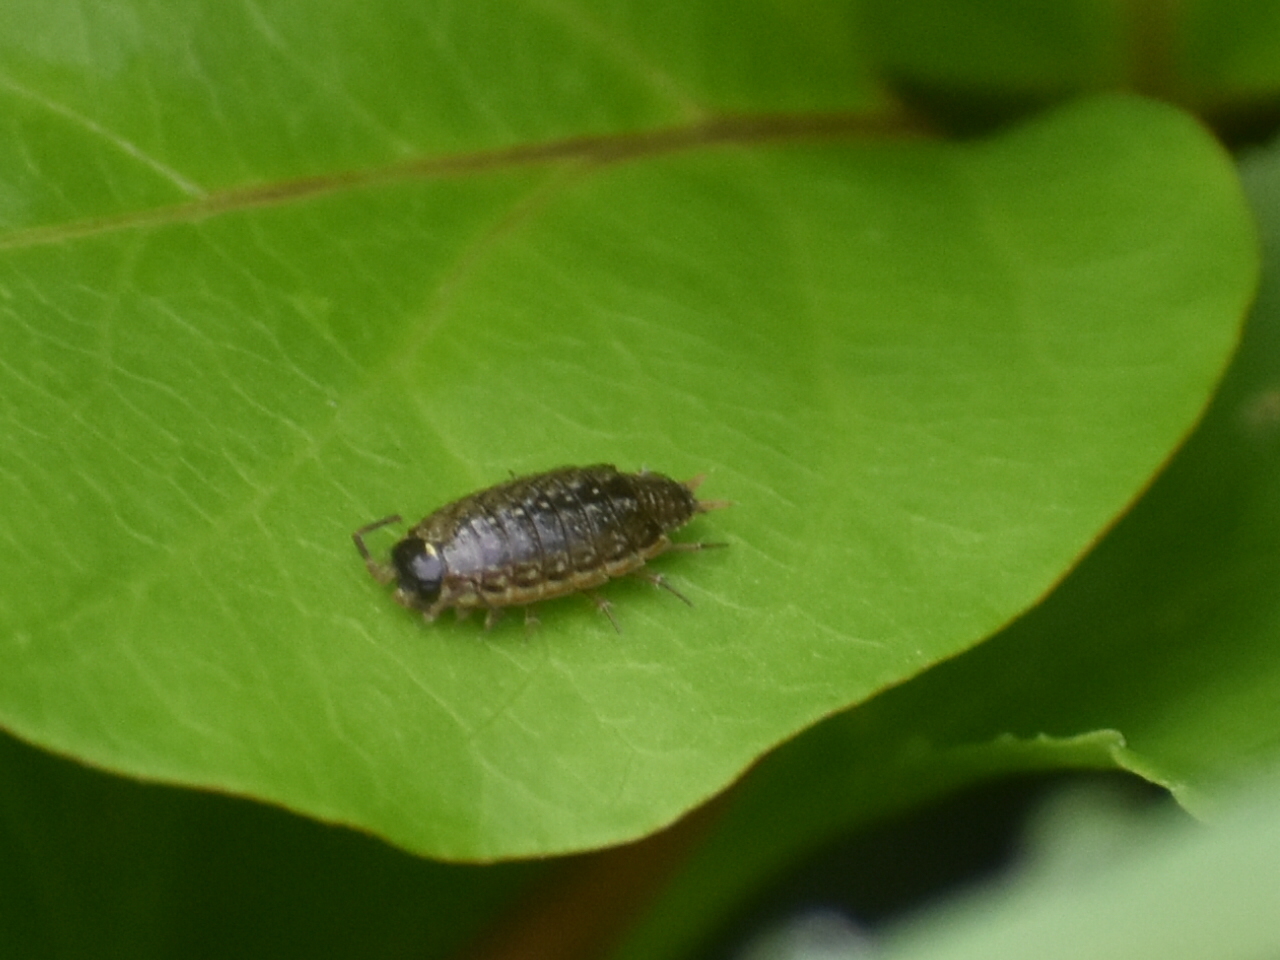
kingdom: Animalia
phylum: Arthropoda
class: Malacostraca
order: Isopoda
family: Philosciidae
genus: Philoscia
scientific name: Philoscia muscorum
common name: Common striped woodlouse
